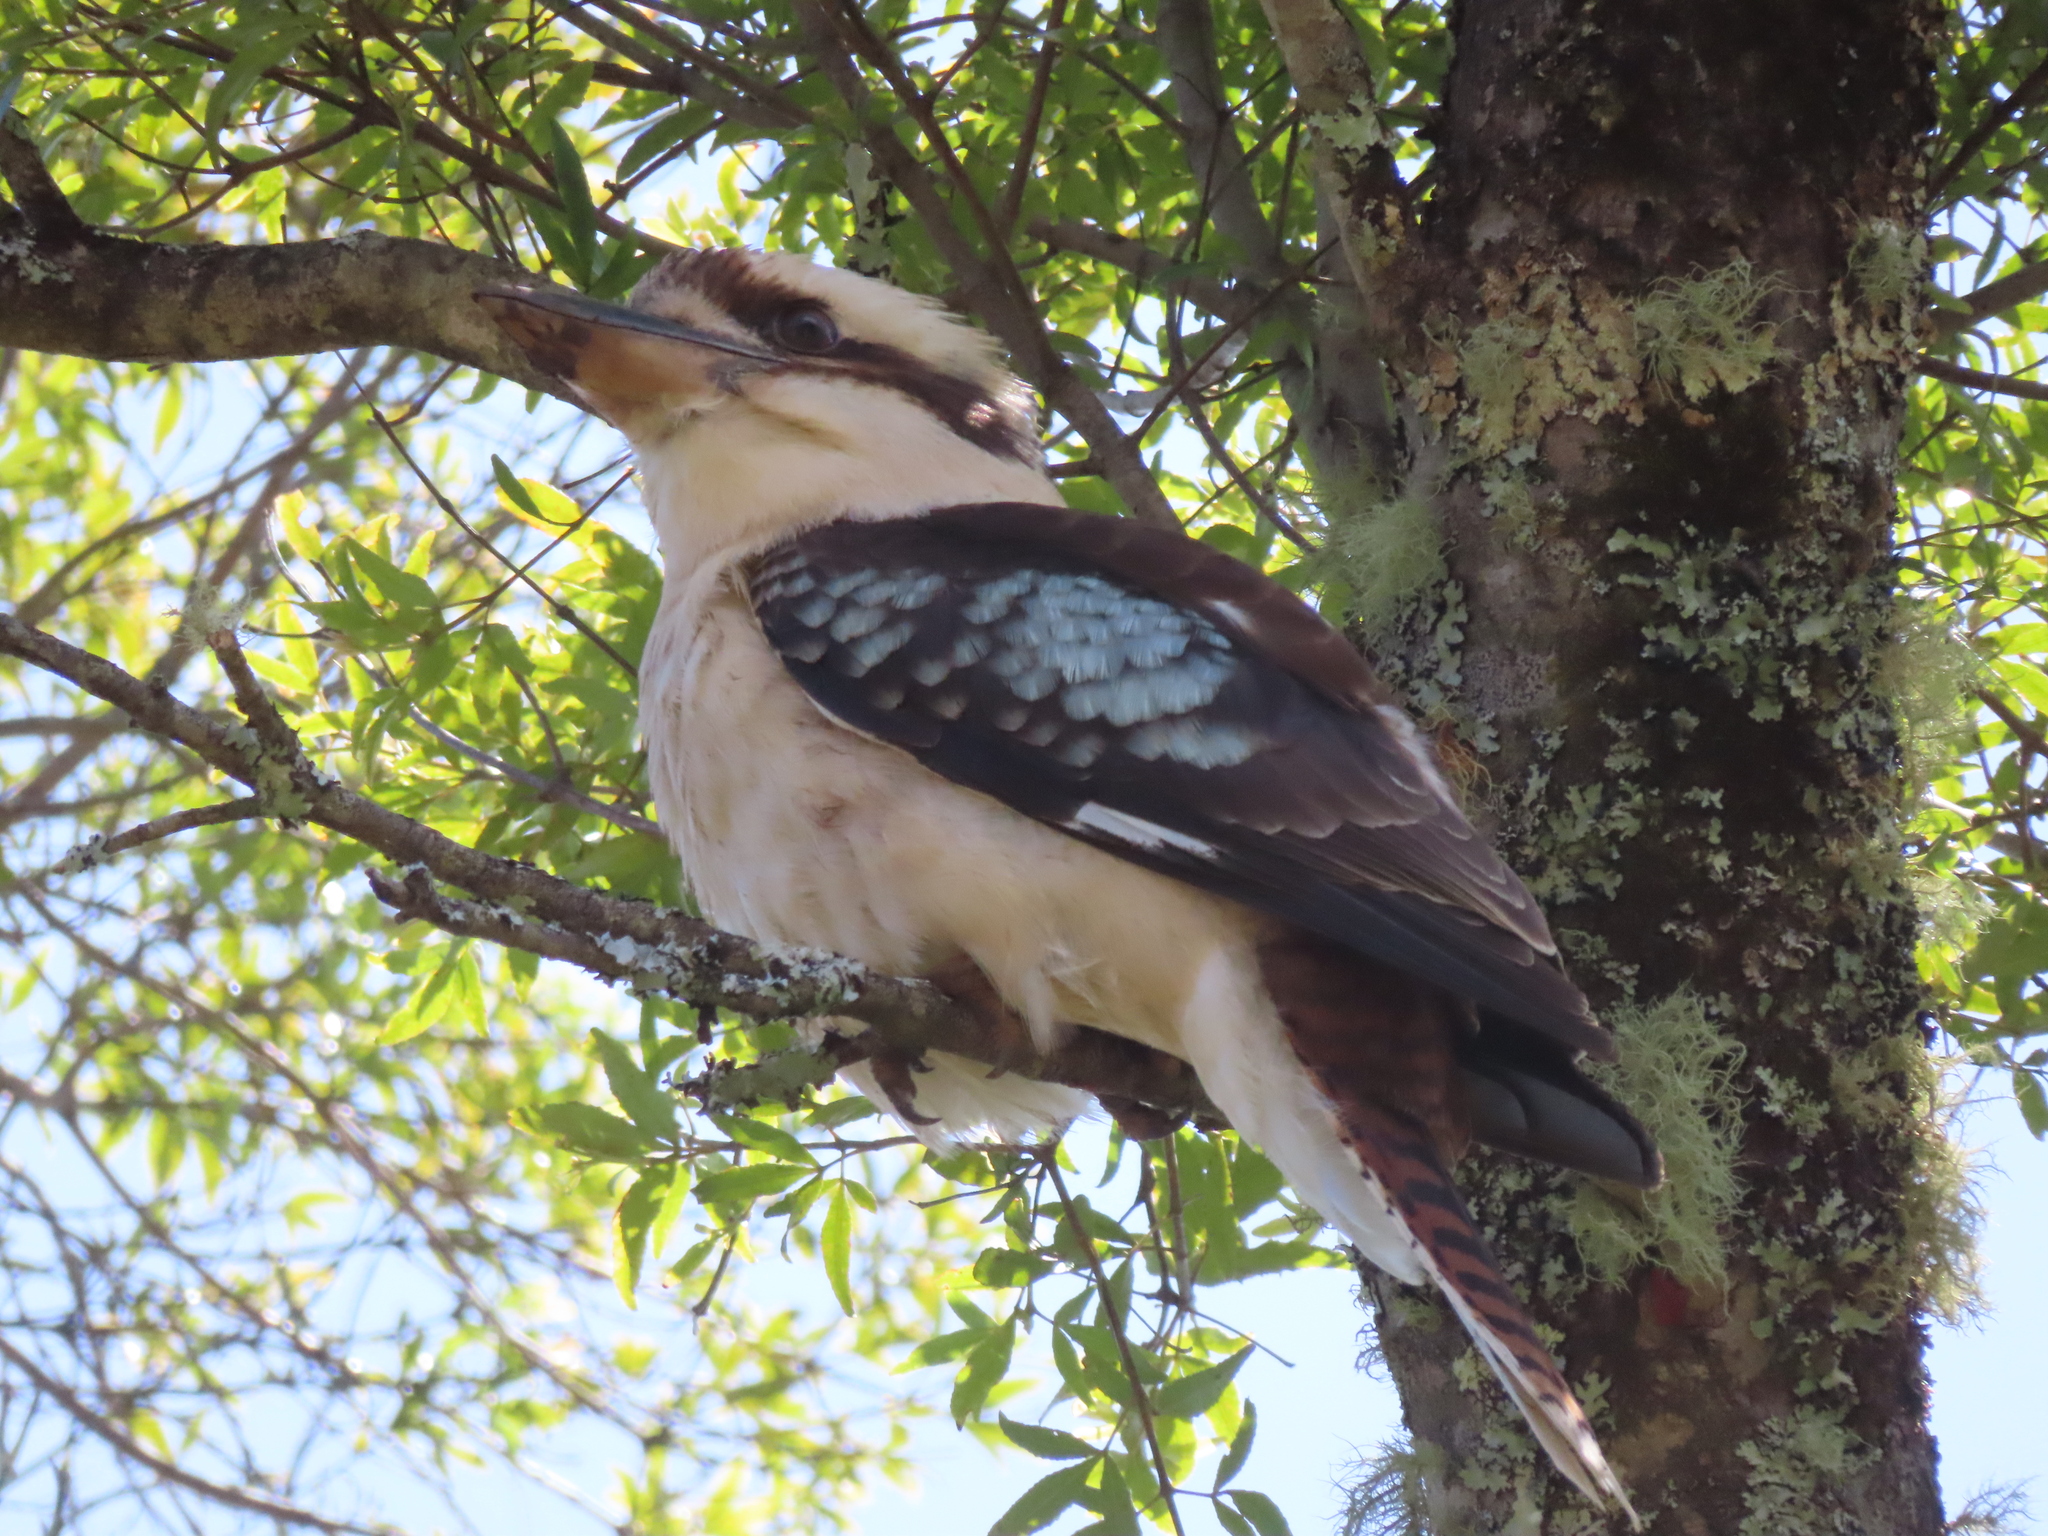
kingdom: Animalia
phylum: Chordata
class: Aves
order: Coraciiformes
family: Alcedinidae
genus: Dacelo
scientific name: Dacelo novaeguineae
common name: Laughing kookaburra
